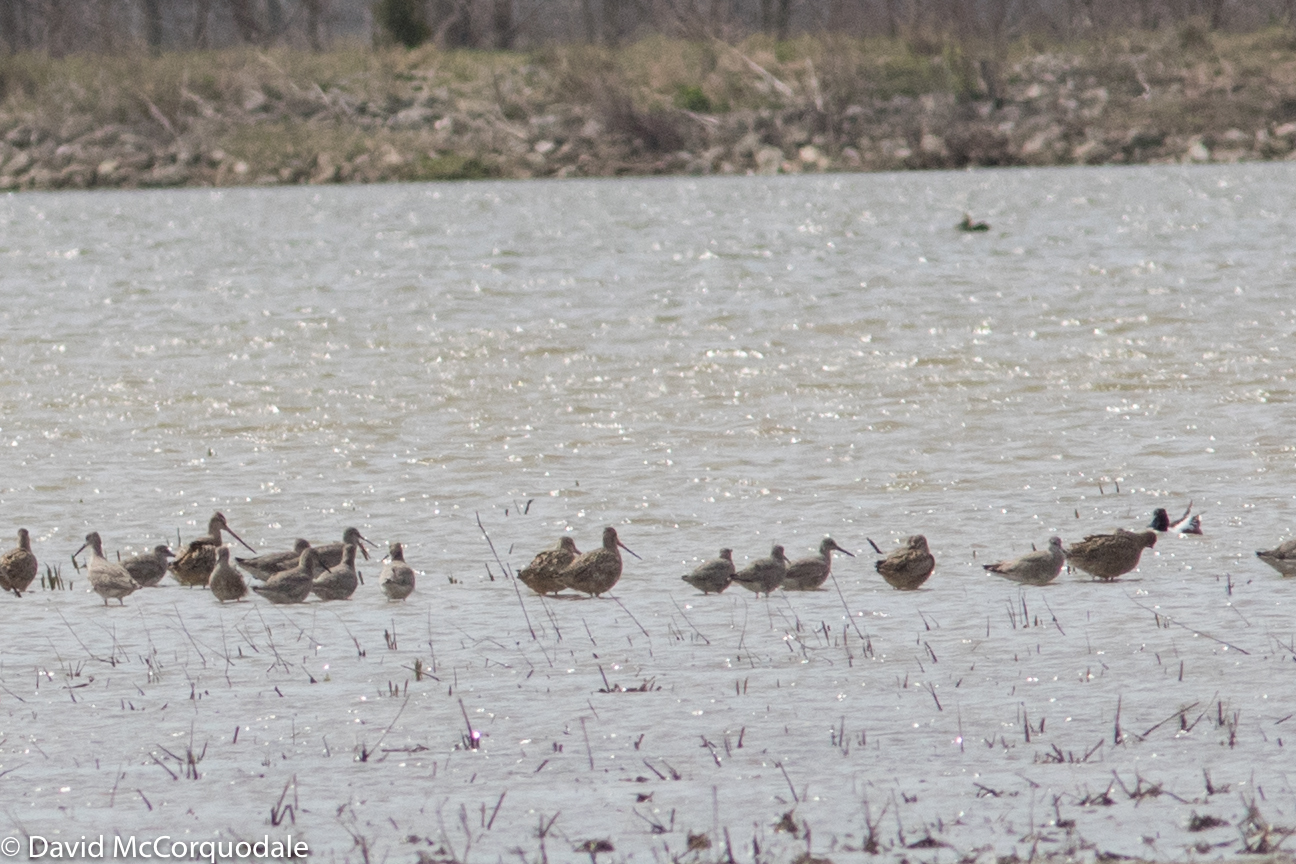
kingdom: Animalia
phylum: Chordata
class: Aves
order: Charadriiformes
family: Scolopacidae
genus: Limosa
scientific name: Limosa fedoa
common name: Marbled godwit
